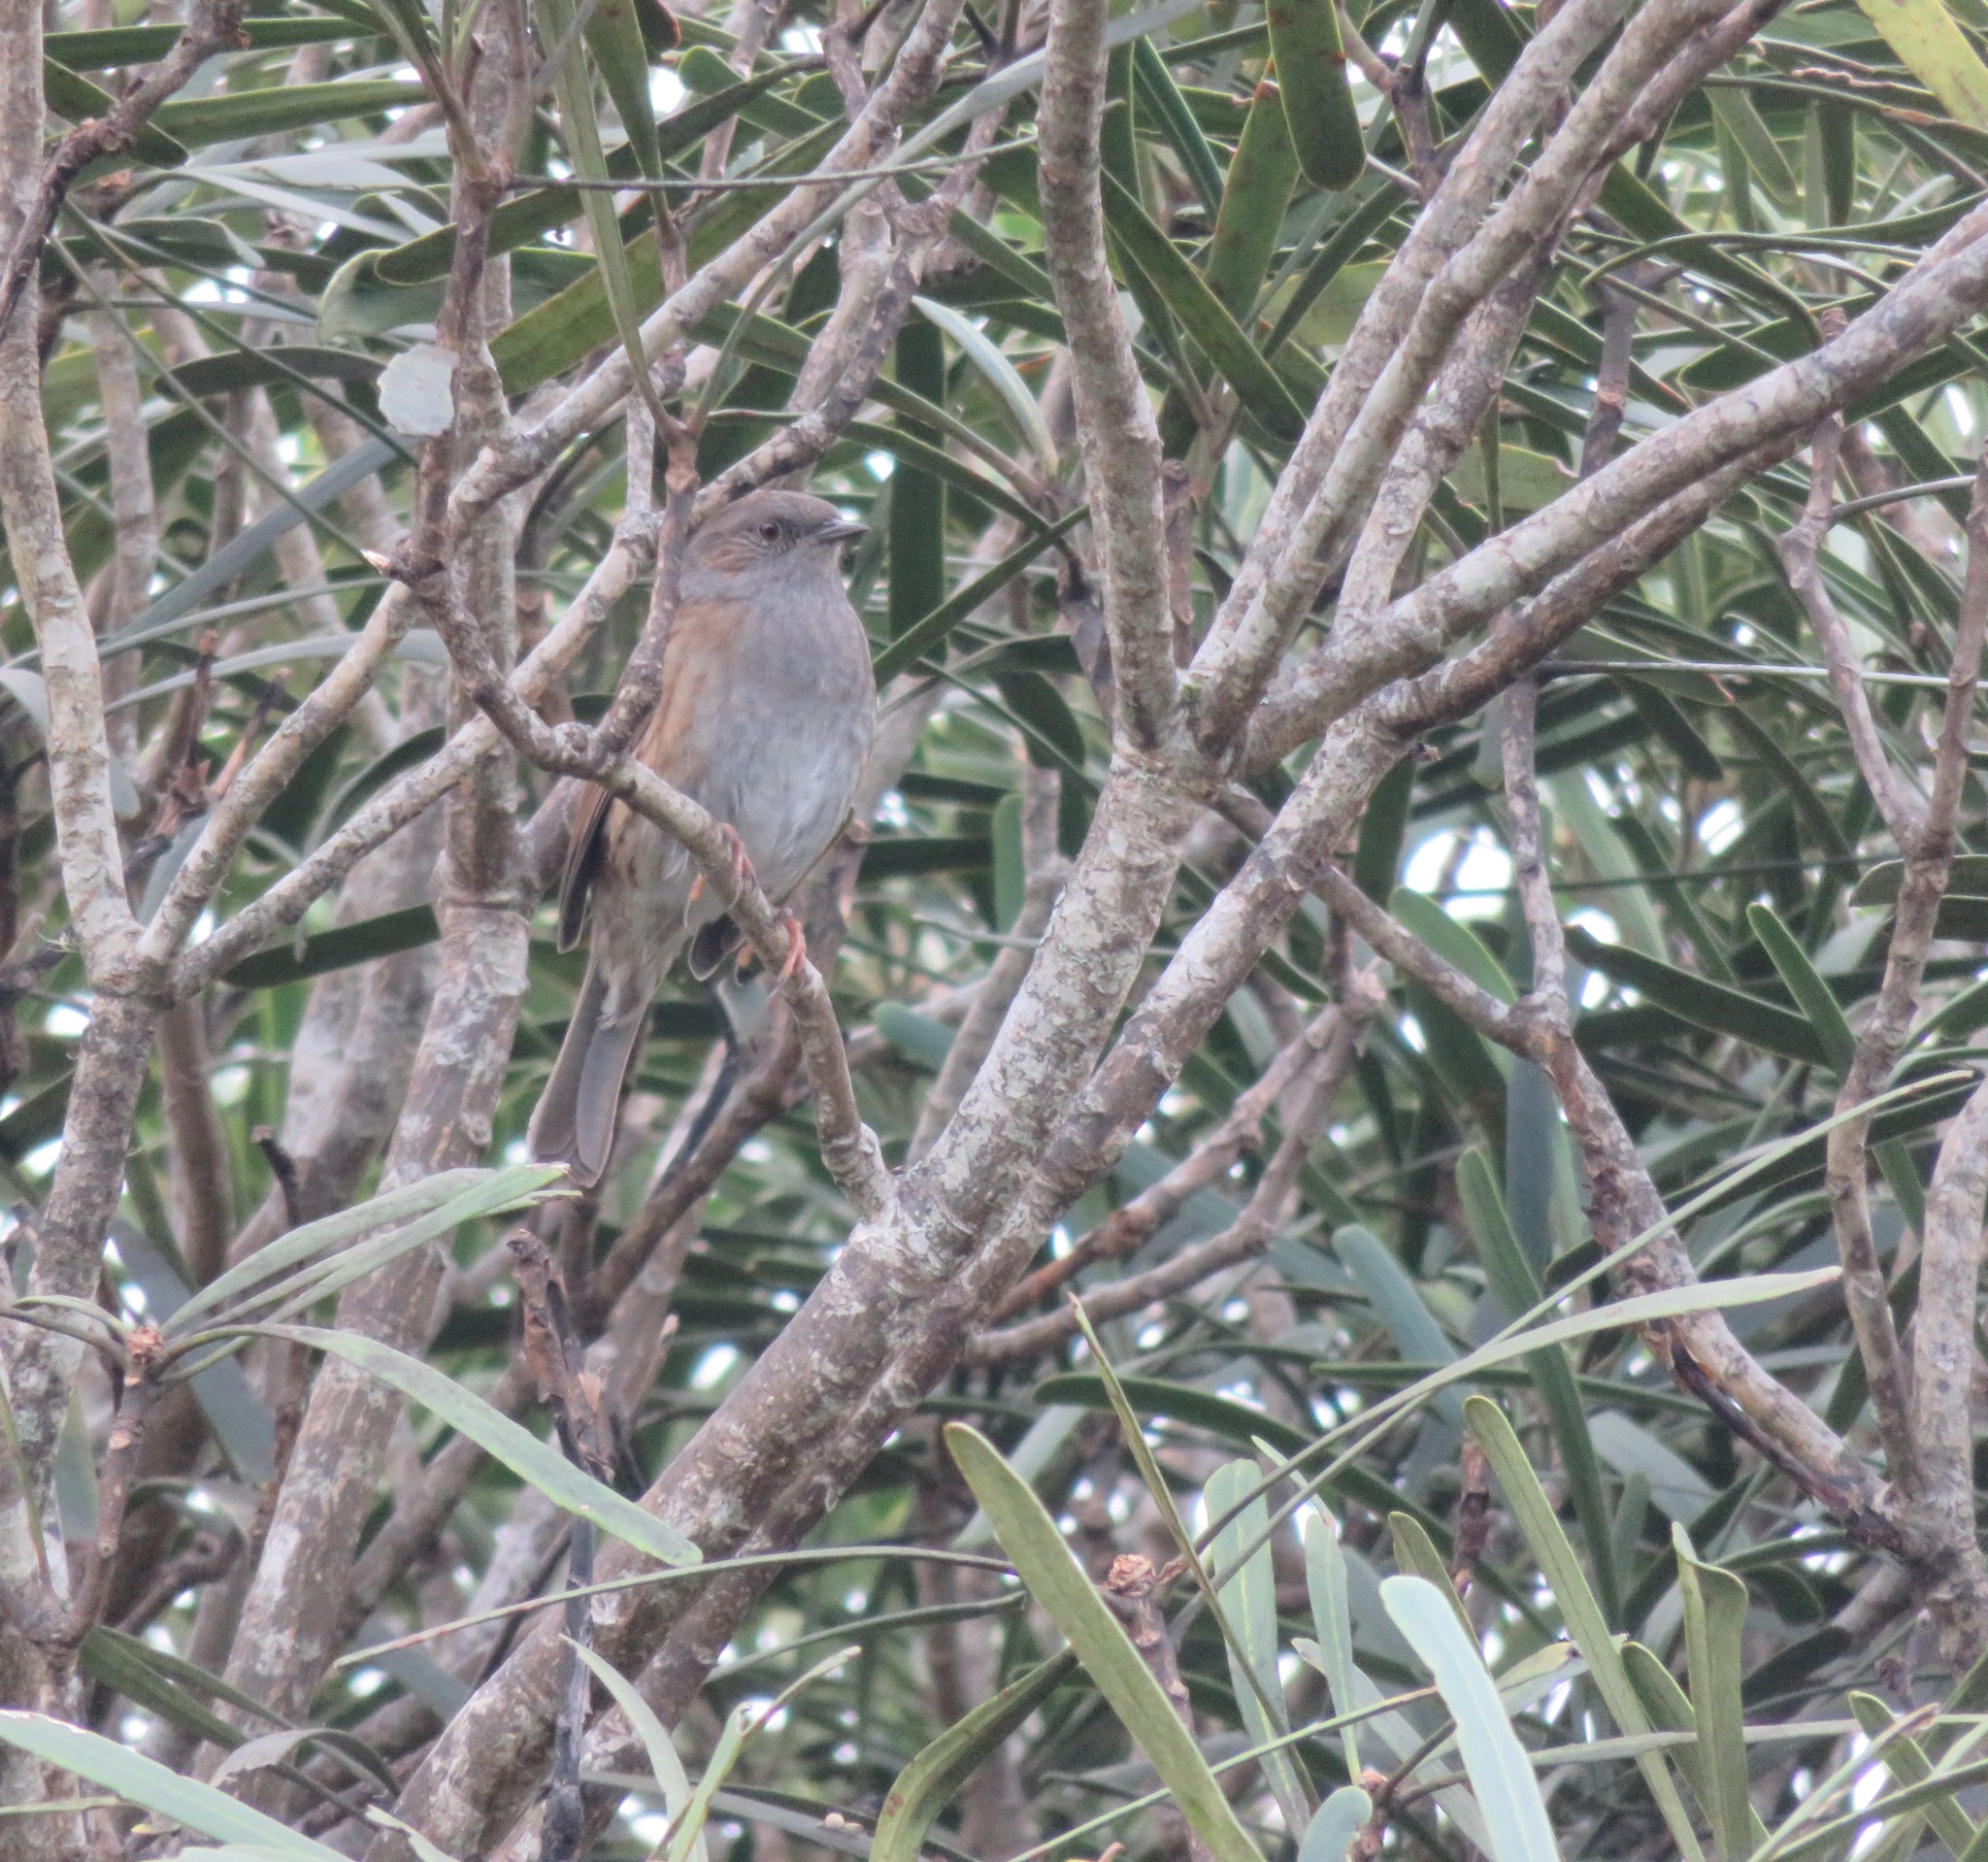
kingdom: Animalia
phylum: Chordata
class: Aves
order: Passeriformes
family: Prunellidae
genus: Prunella
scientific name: Prunella modularis
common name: Dunnock
